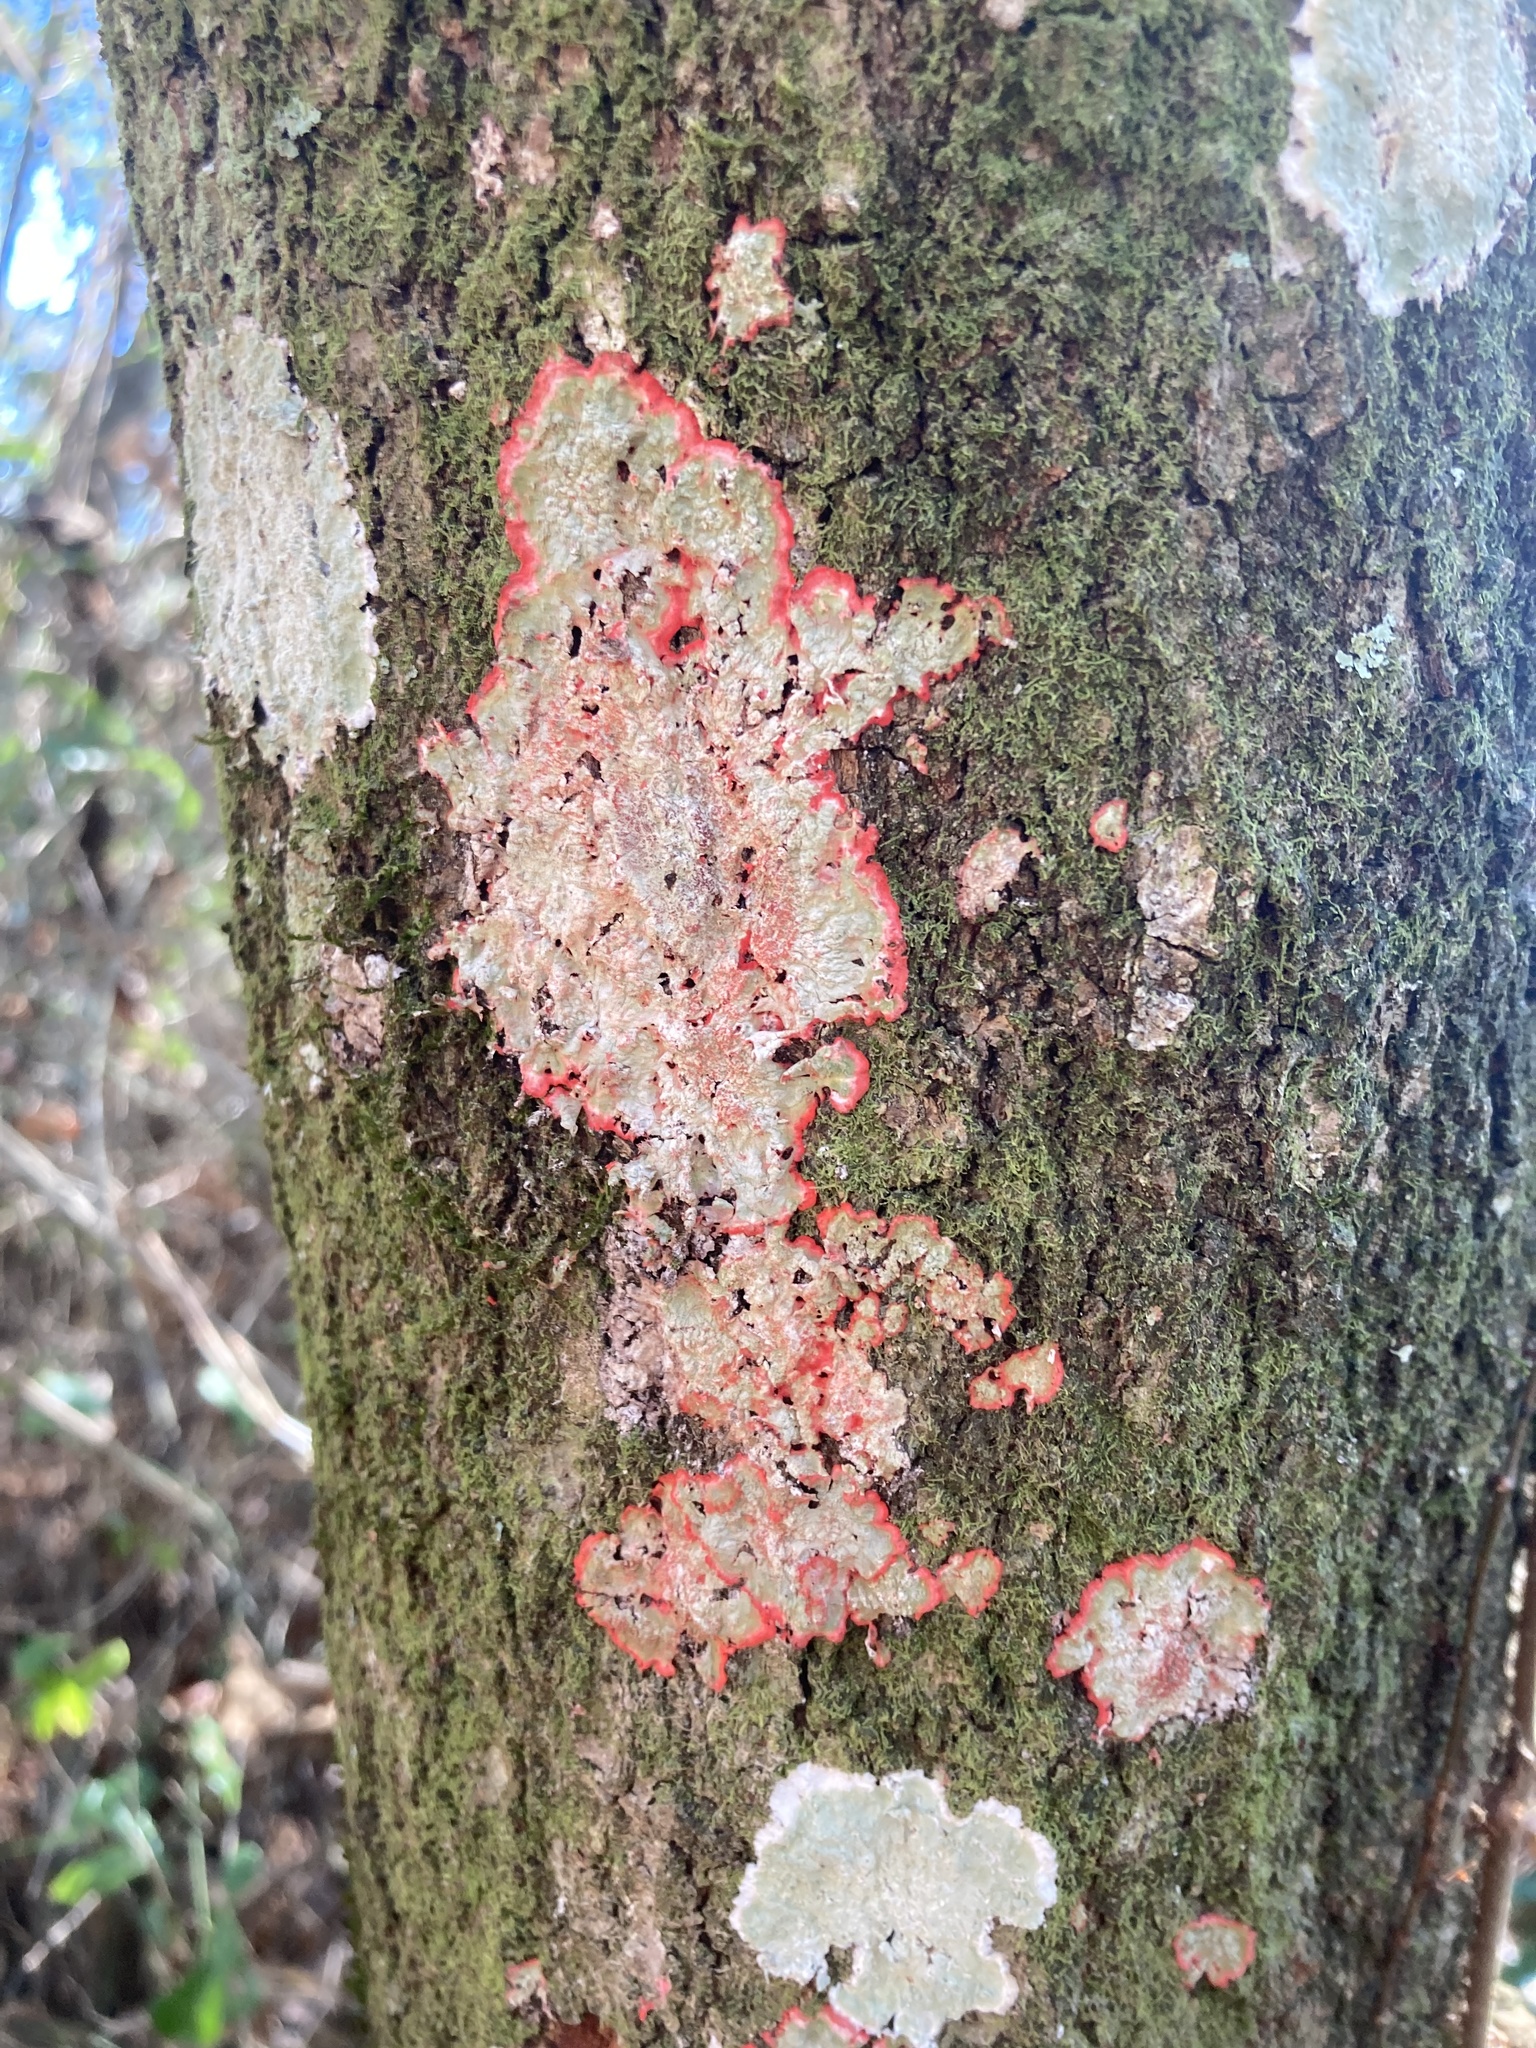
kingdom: Fungi
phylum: Ascomycota
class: Arthoniomycetes
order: Arthoniales
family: Arthoniaceae
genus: Herpothallon
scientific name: Herpothallon rubrocinctum
